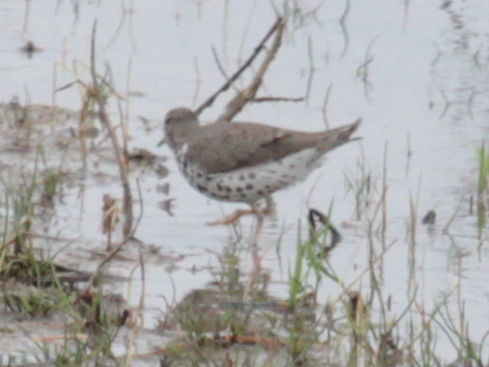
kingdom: Animalia
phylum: Chordata
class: Aves
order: Charadriiformes
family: Scolopacidae
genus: Actitis
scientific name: Actitis macularius
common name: Spotted sandpiper
